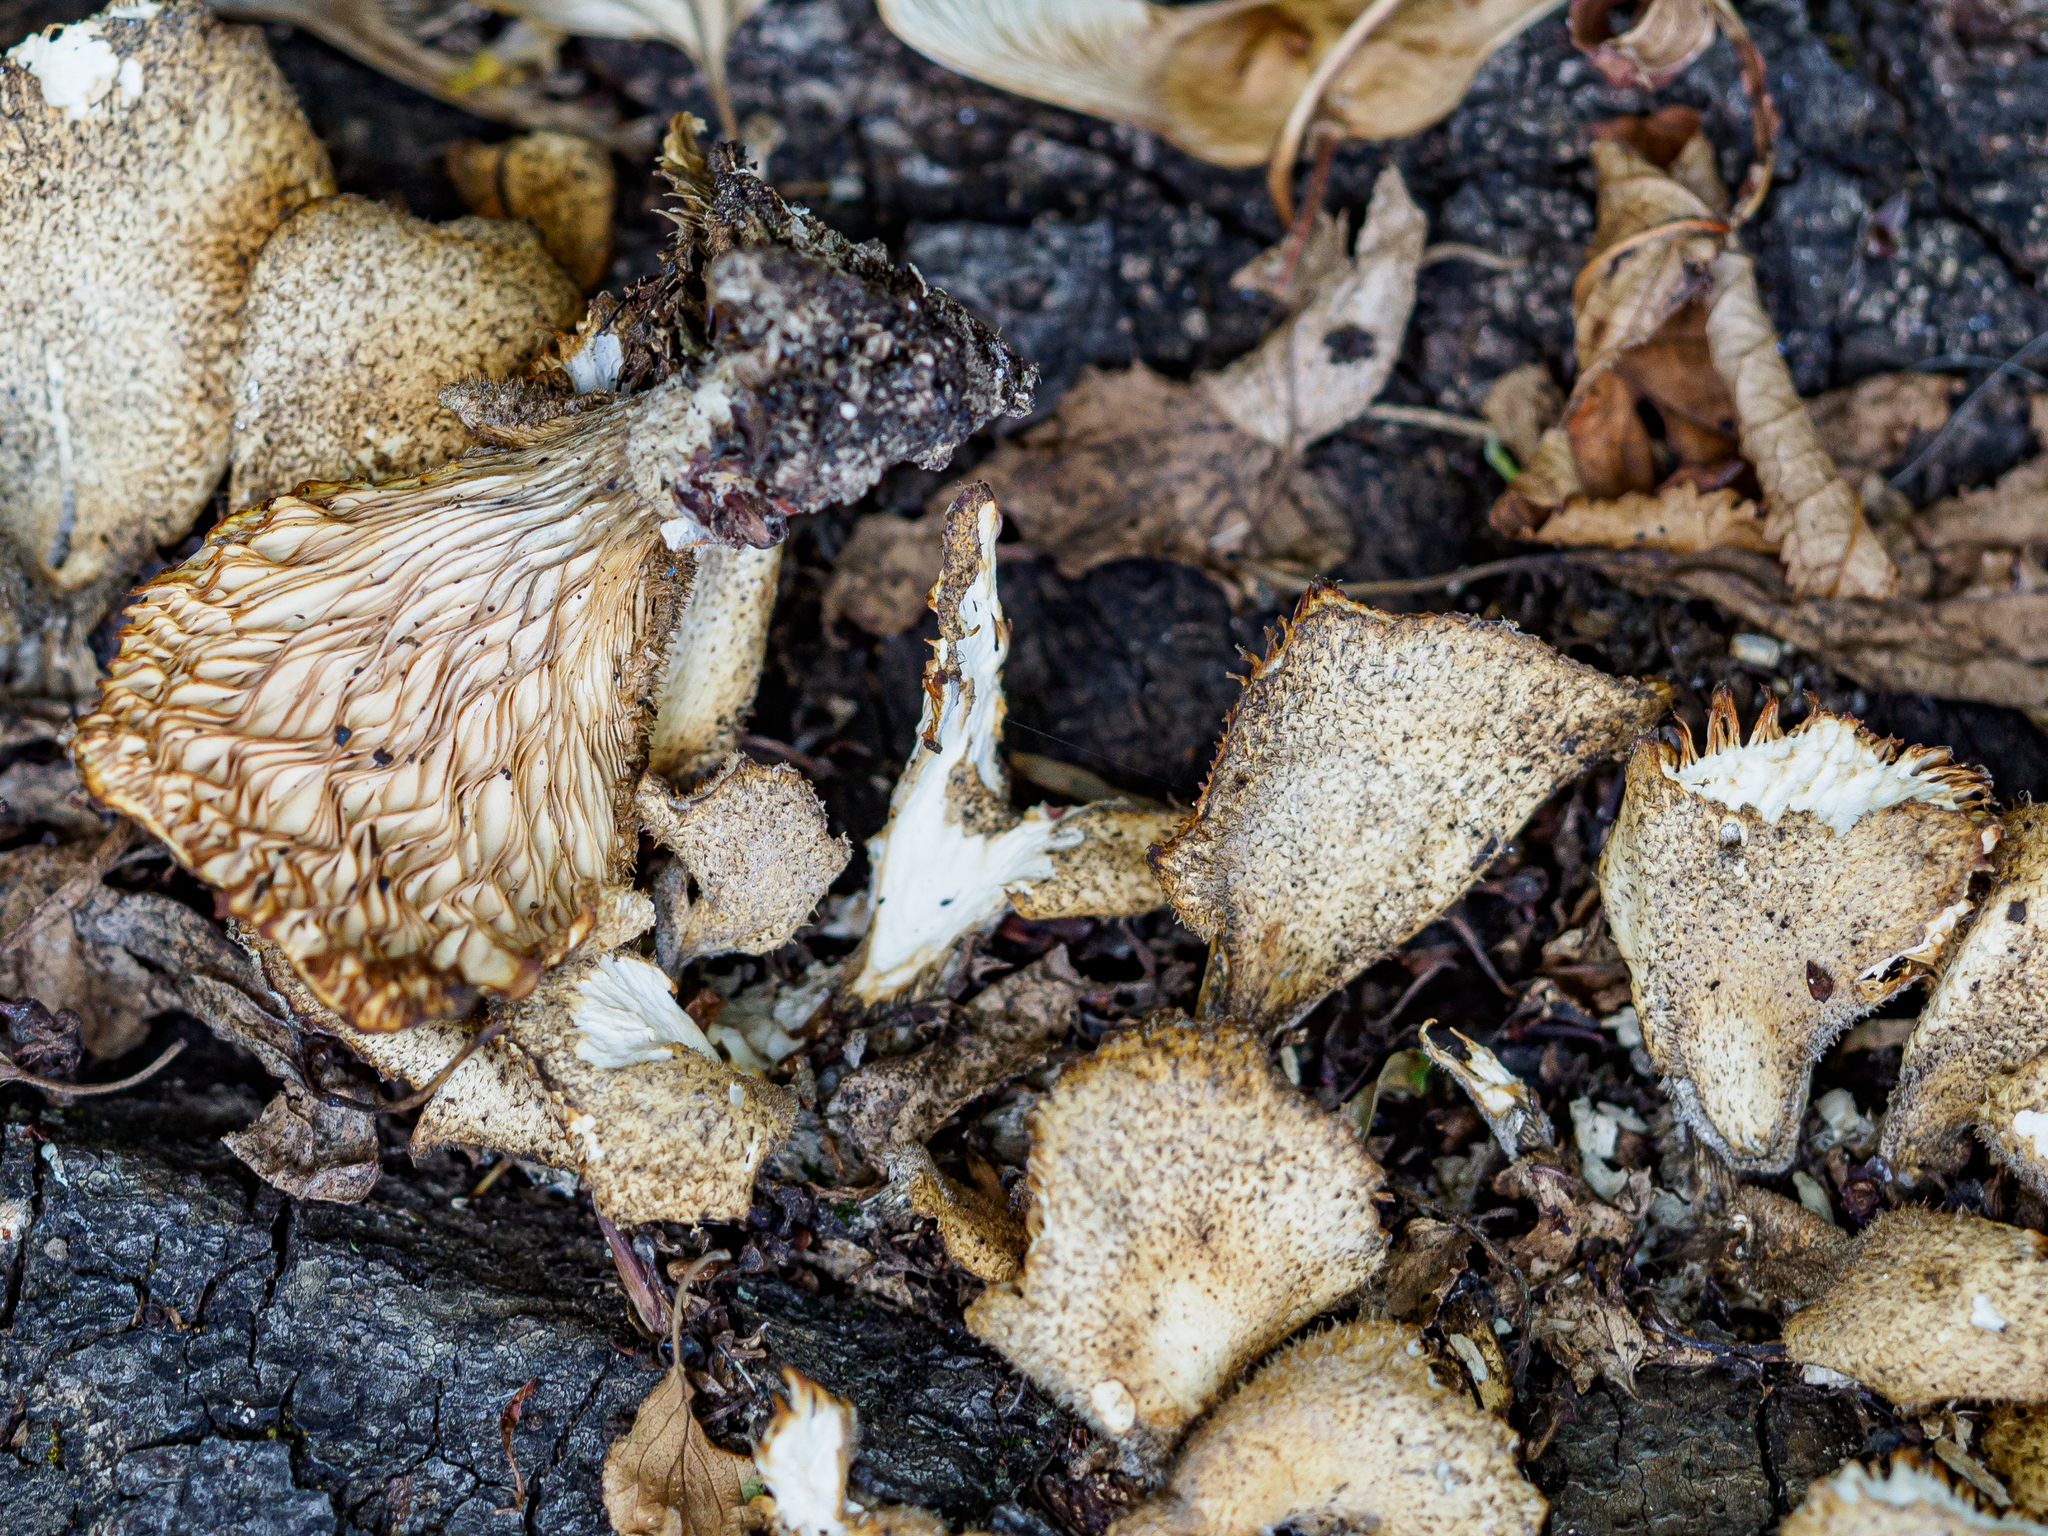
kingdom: Fungi
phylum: Basidiomycota
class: Agaricomycetes
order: Polyporales
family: Panaceae
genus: Panus
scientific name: Panus neostrigosus
